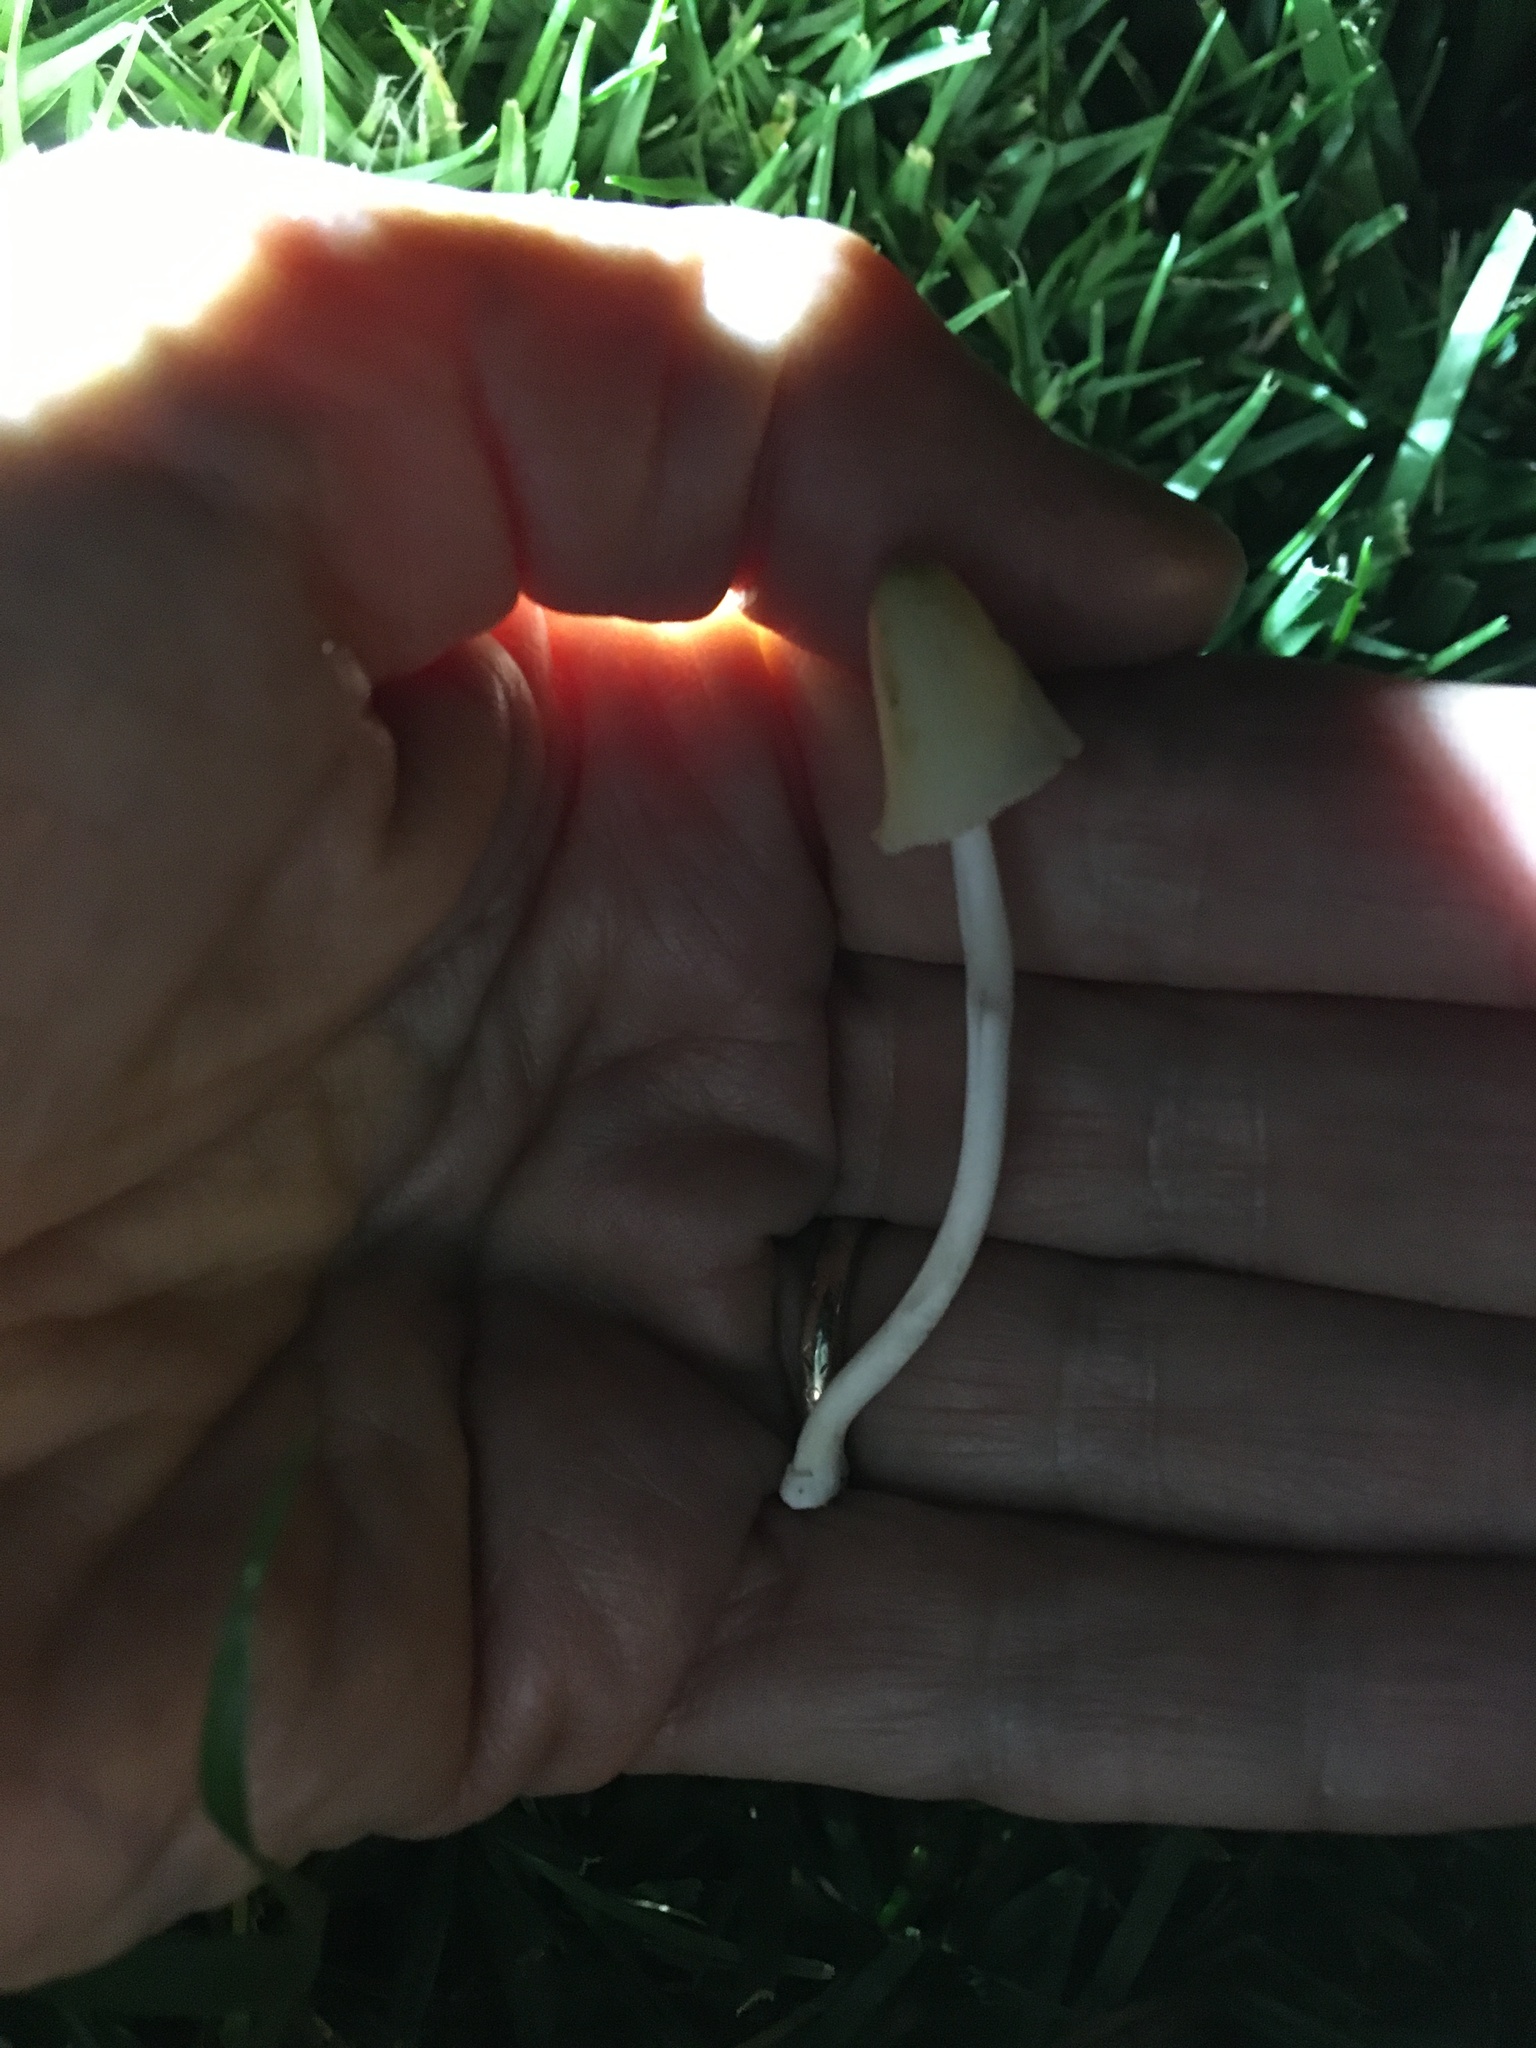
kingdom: Fungi
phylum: Basidiomycota
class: Agaricomycetes
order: Agaricales
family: Bolbitiaceae
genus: Conocybe
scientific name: Conocybe apala
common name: Milky conecap
